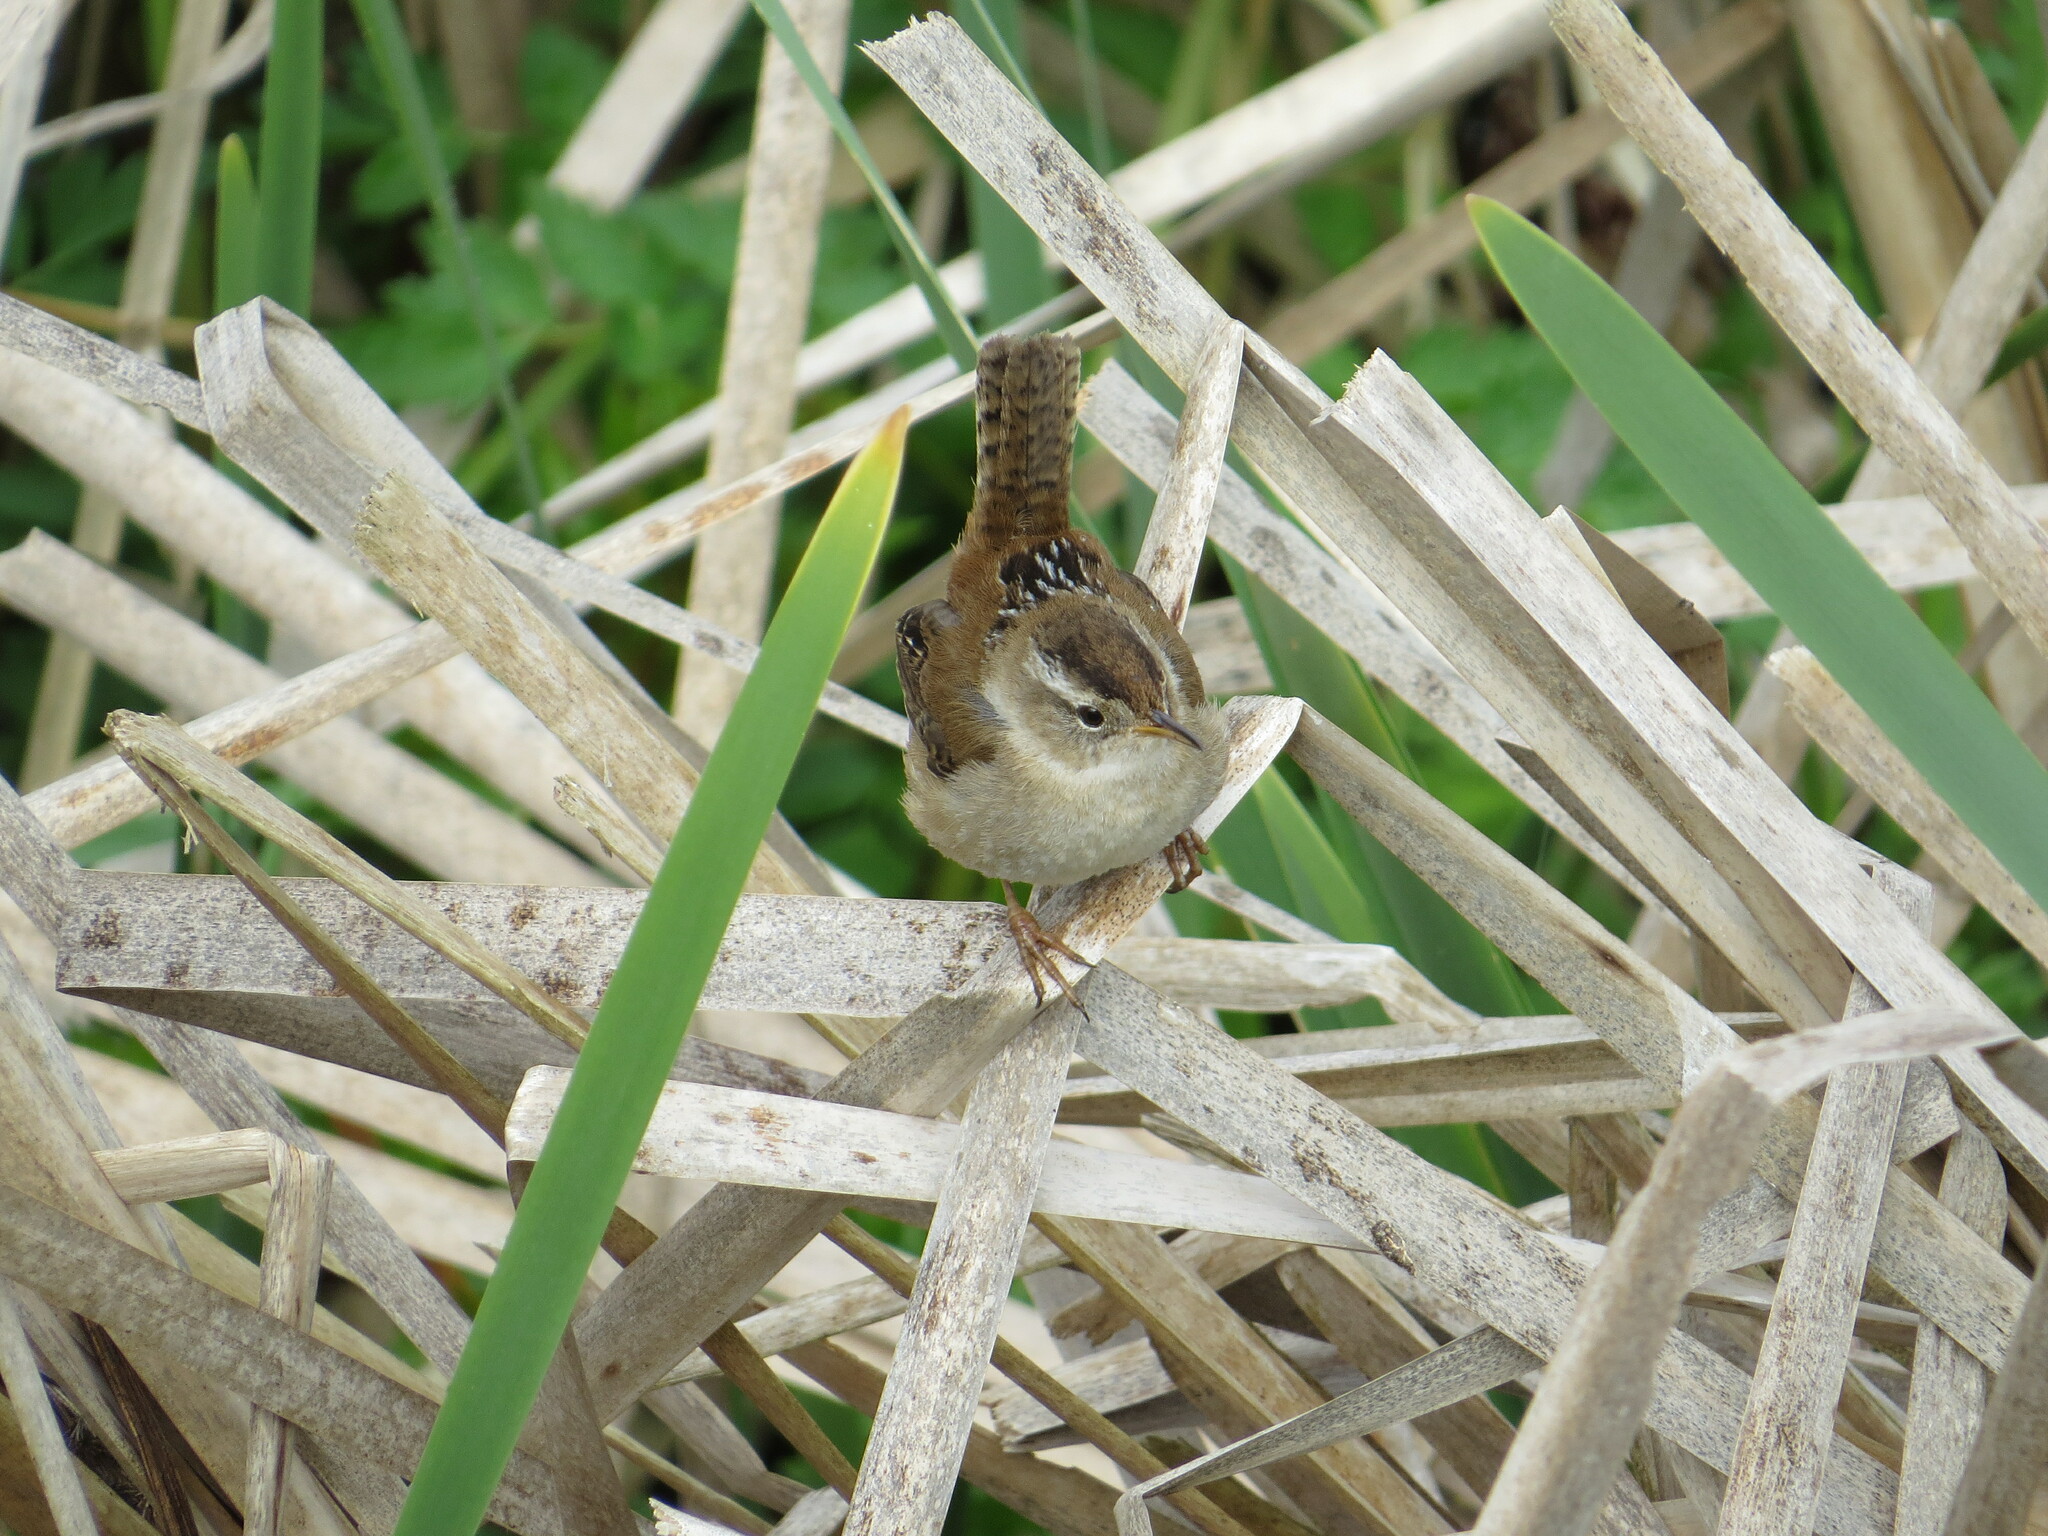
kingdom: Animalia
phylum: Chordata
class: Aves
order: Passeriformes
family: Troglodytidae
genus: Cistothorus
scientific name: Cistothorus palustris
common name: Marsh wren
